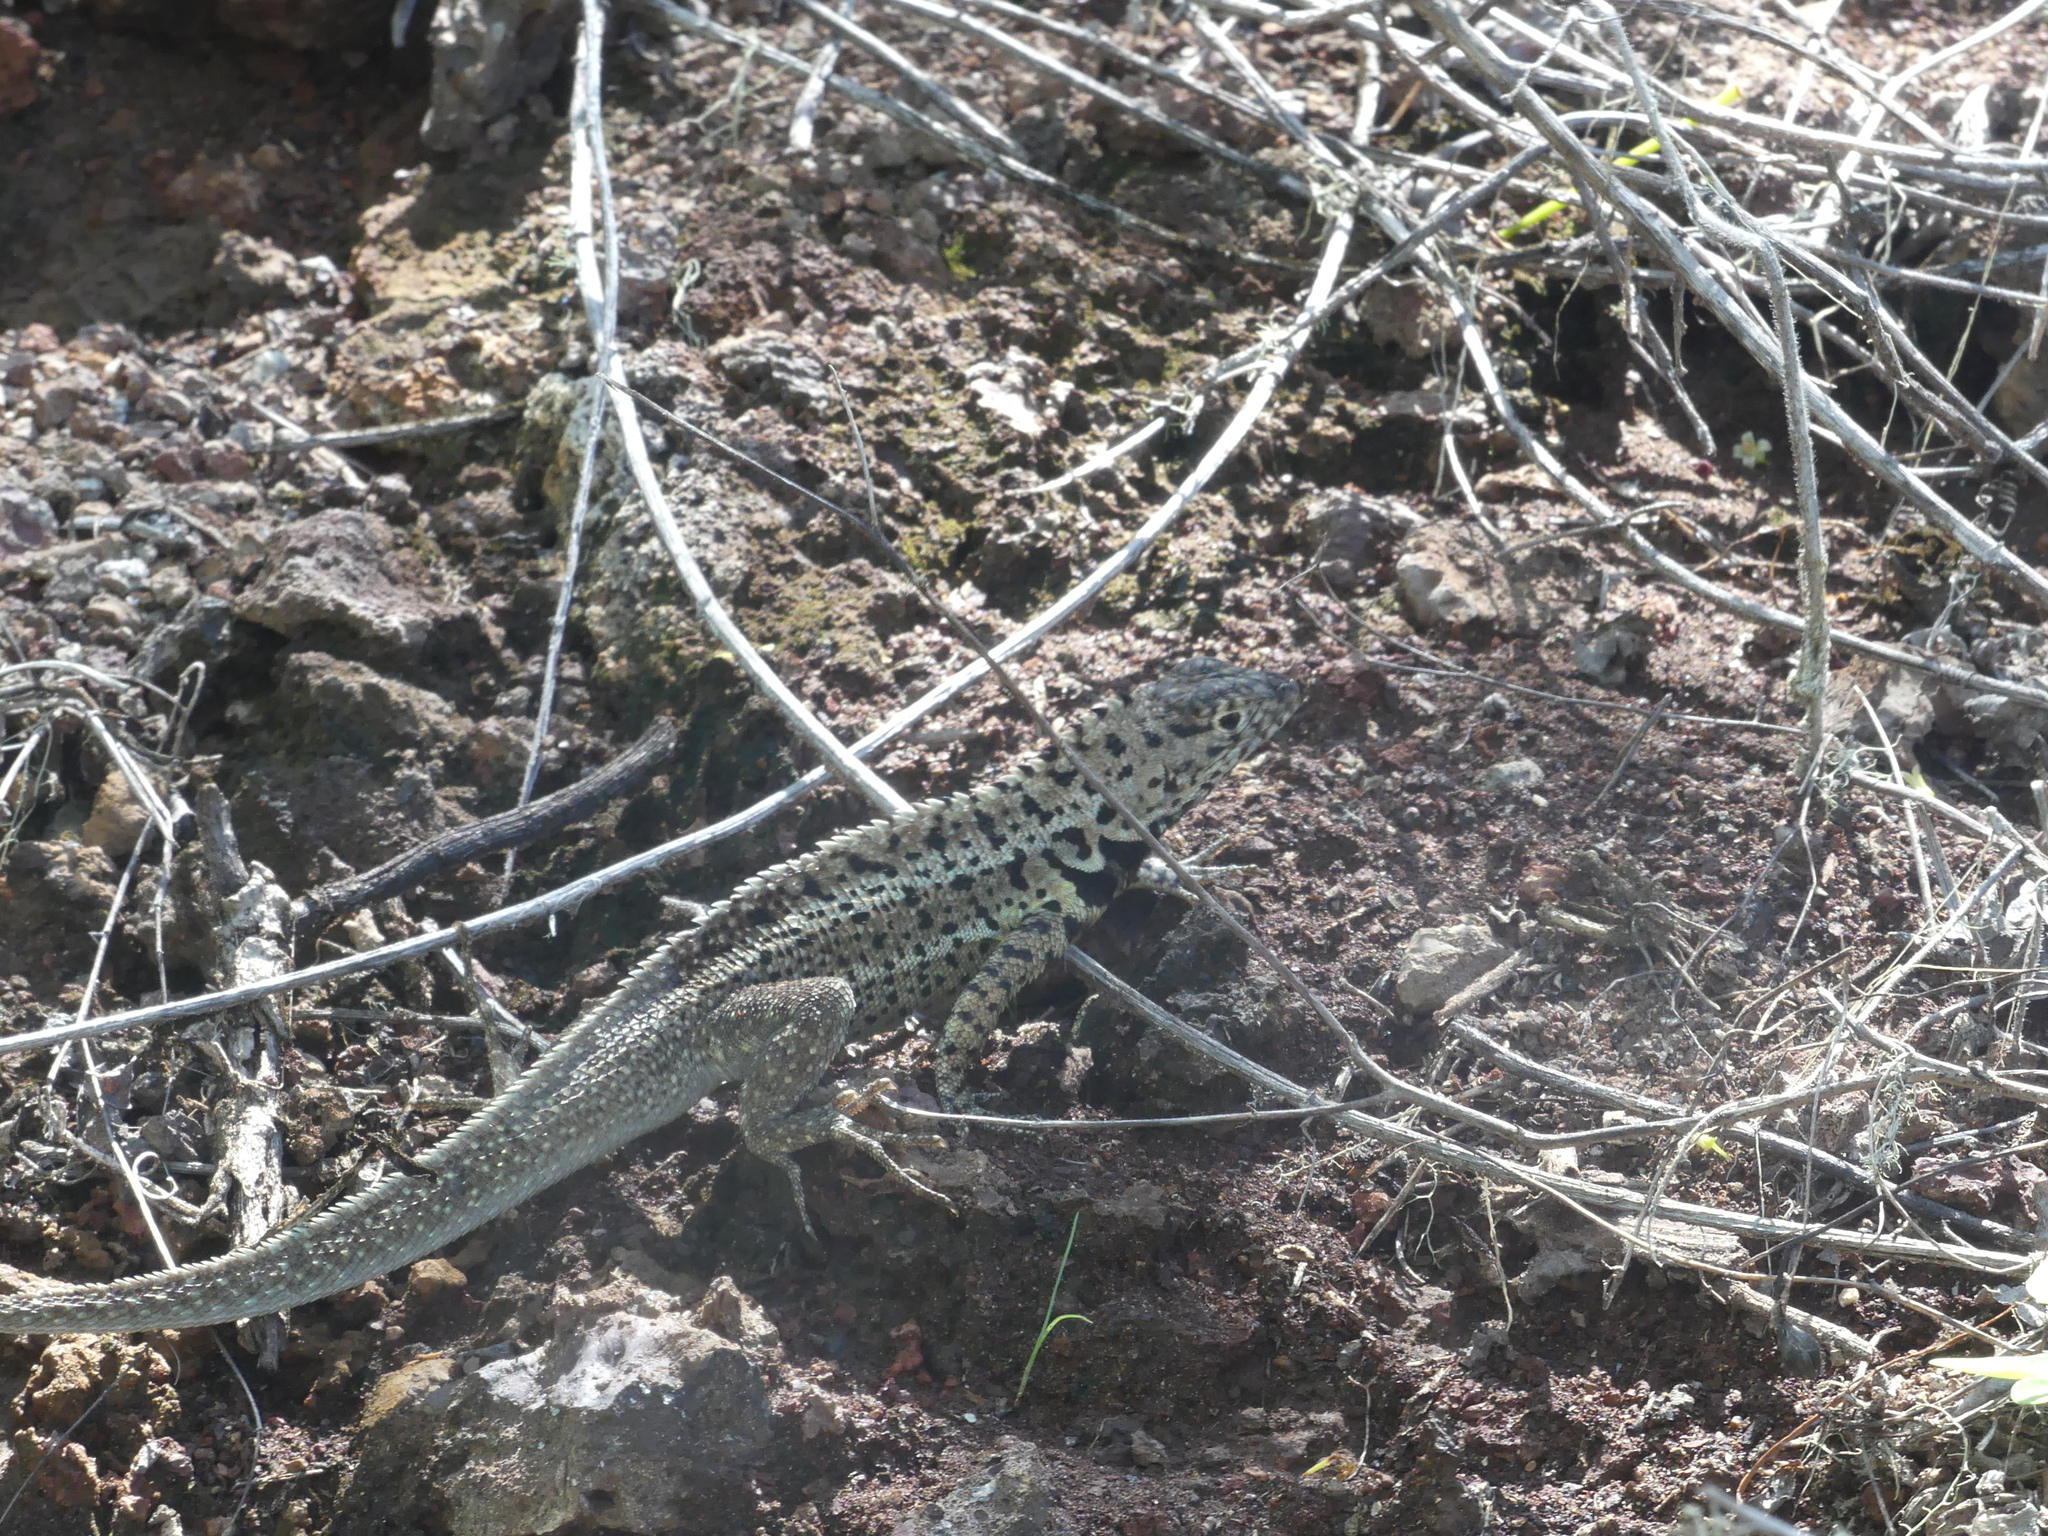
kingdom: Animalia
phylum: Chordata
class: Squamata
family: Tropiduridae
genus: Microlophus
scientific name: Microlophus albemarlensis
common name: Galapagos lava lizard
